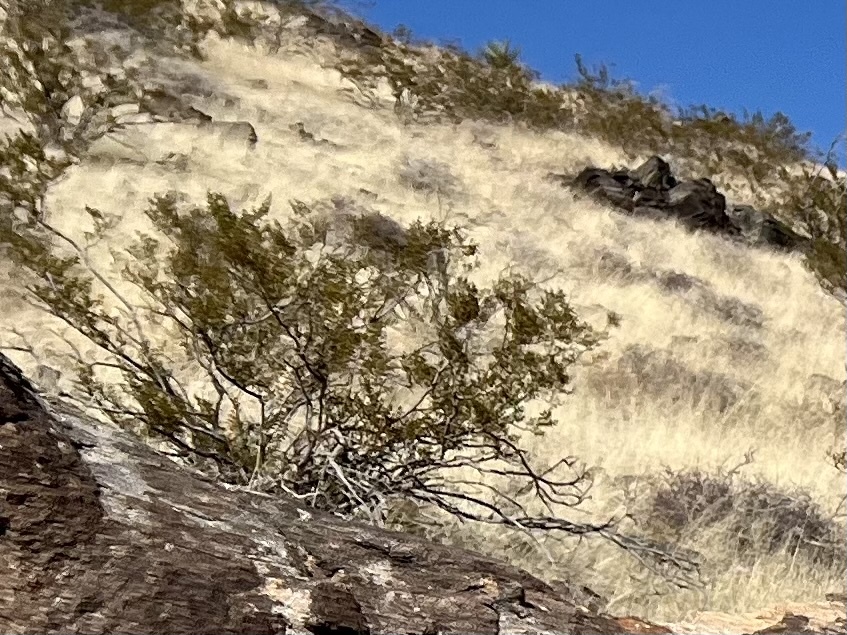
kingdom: Plantae
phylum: Tracheophyta
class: Magnoliopsida
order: Zygophyllales
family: Zygophyllaceae
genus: Larrea
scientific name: Larrea tridentata
